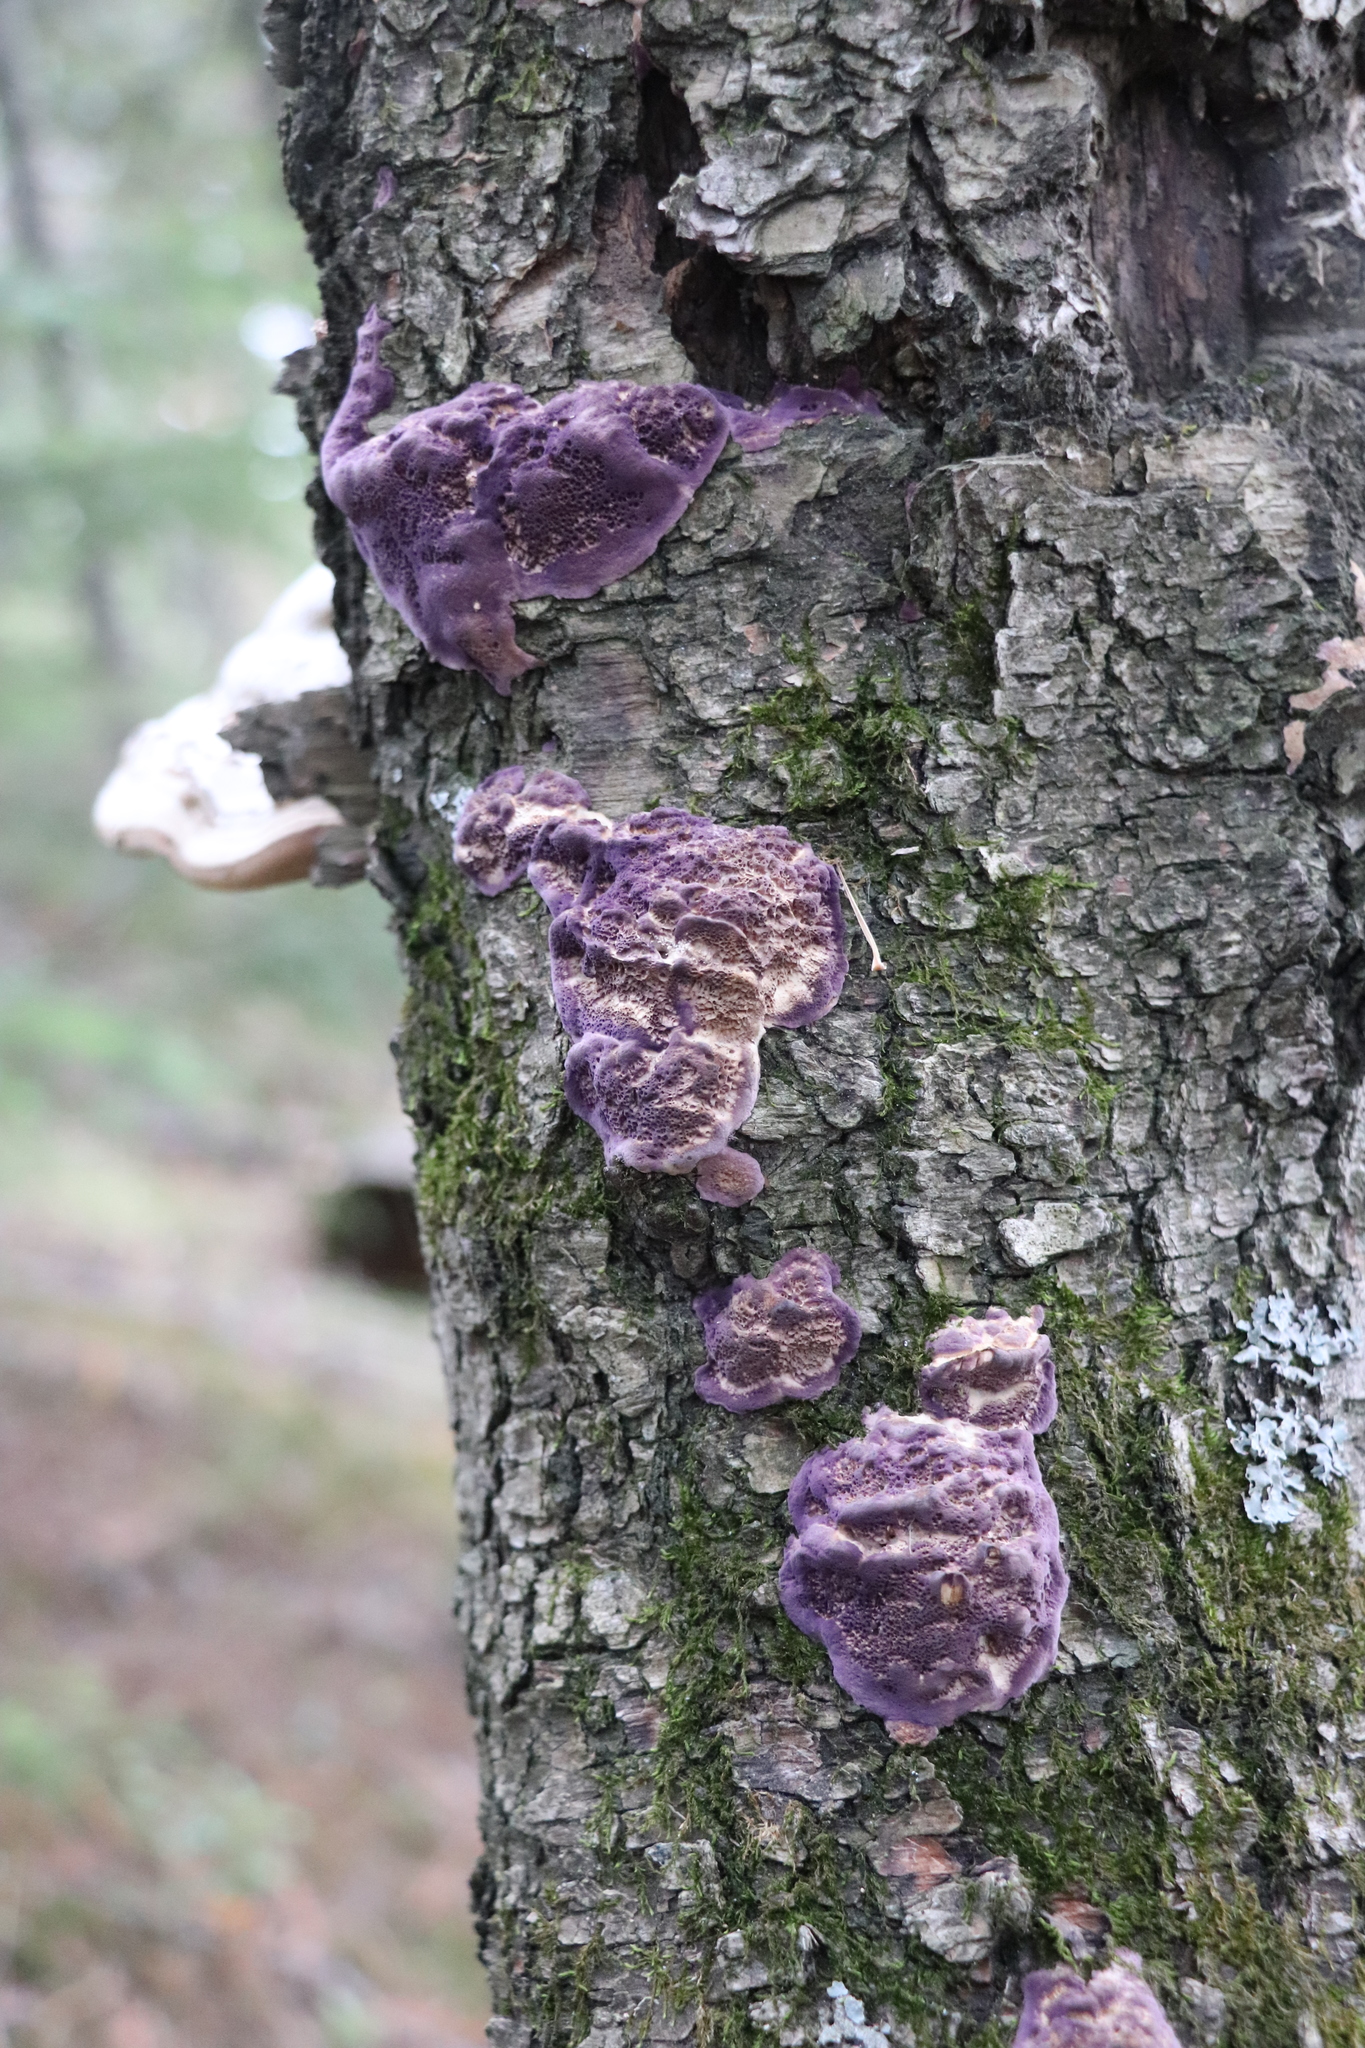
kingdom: Fungi
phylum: Basidiomycota
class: Agaricomycetes
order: Hymenochaetales
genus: Trichaptum
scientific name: Trichaptum biforme
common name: Violet-toothed polypore
